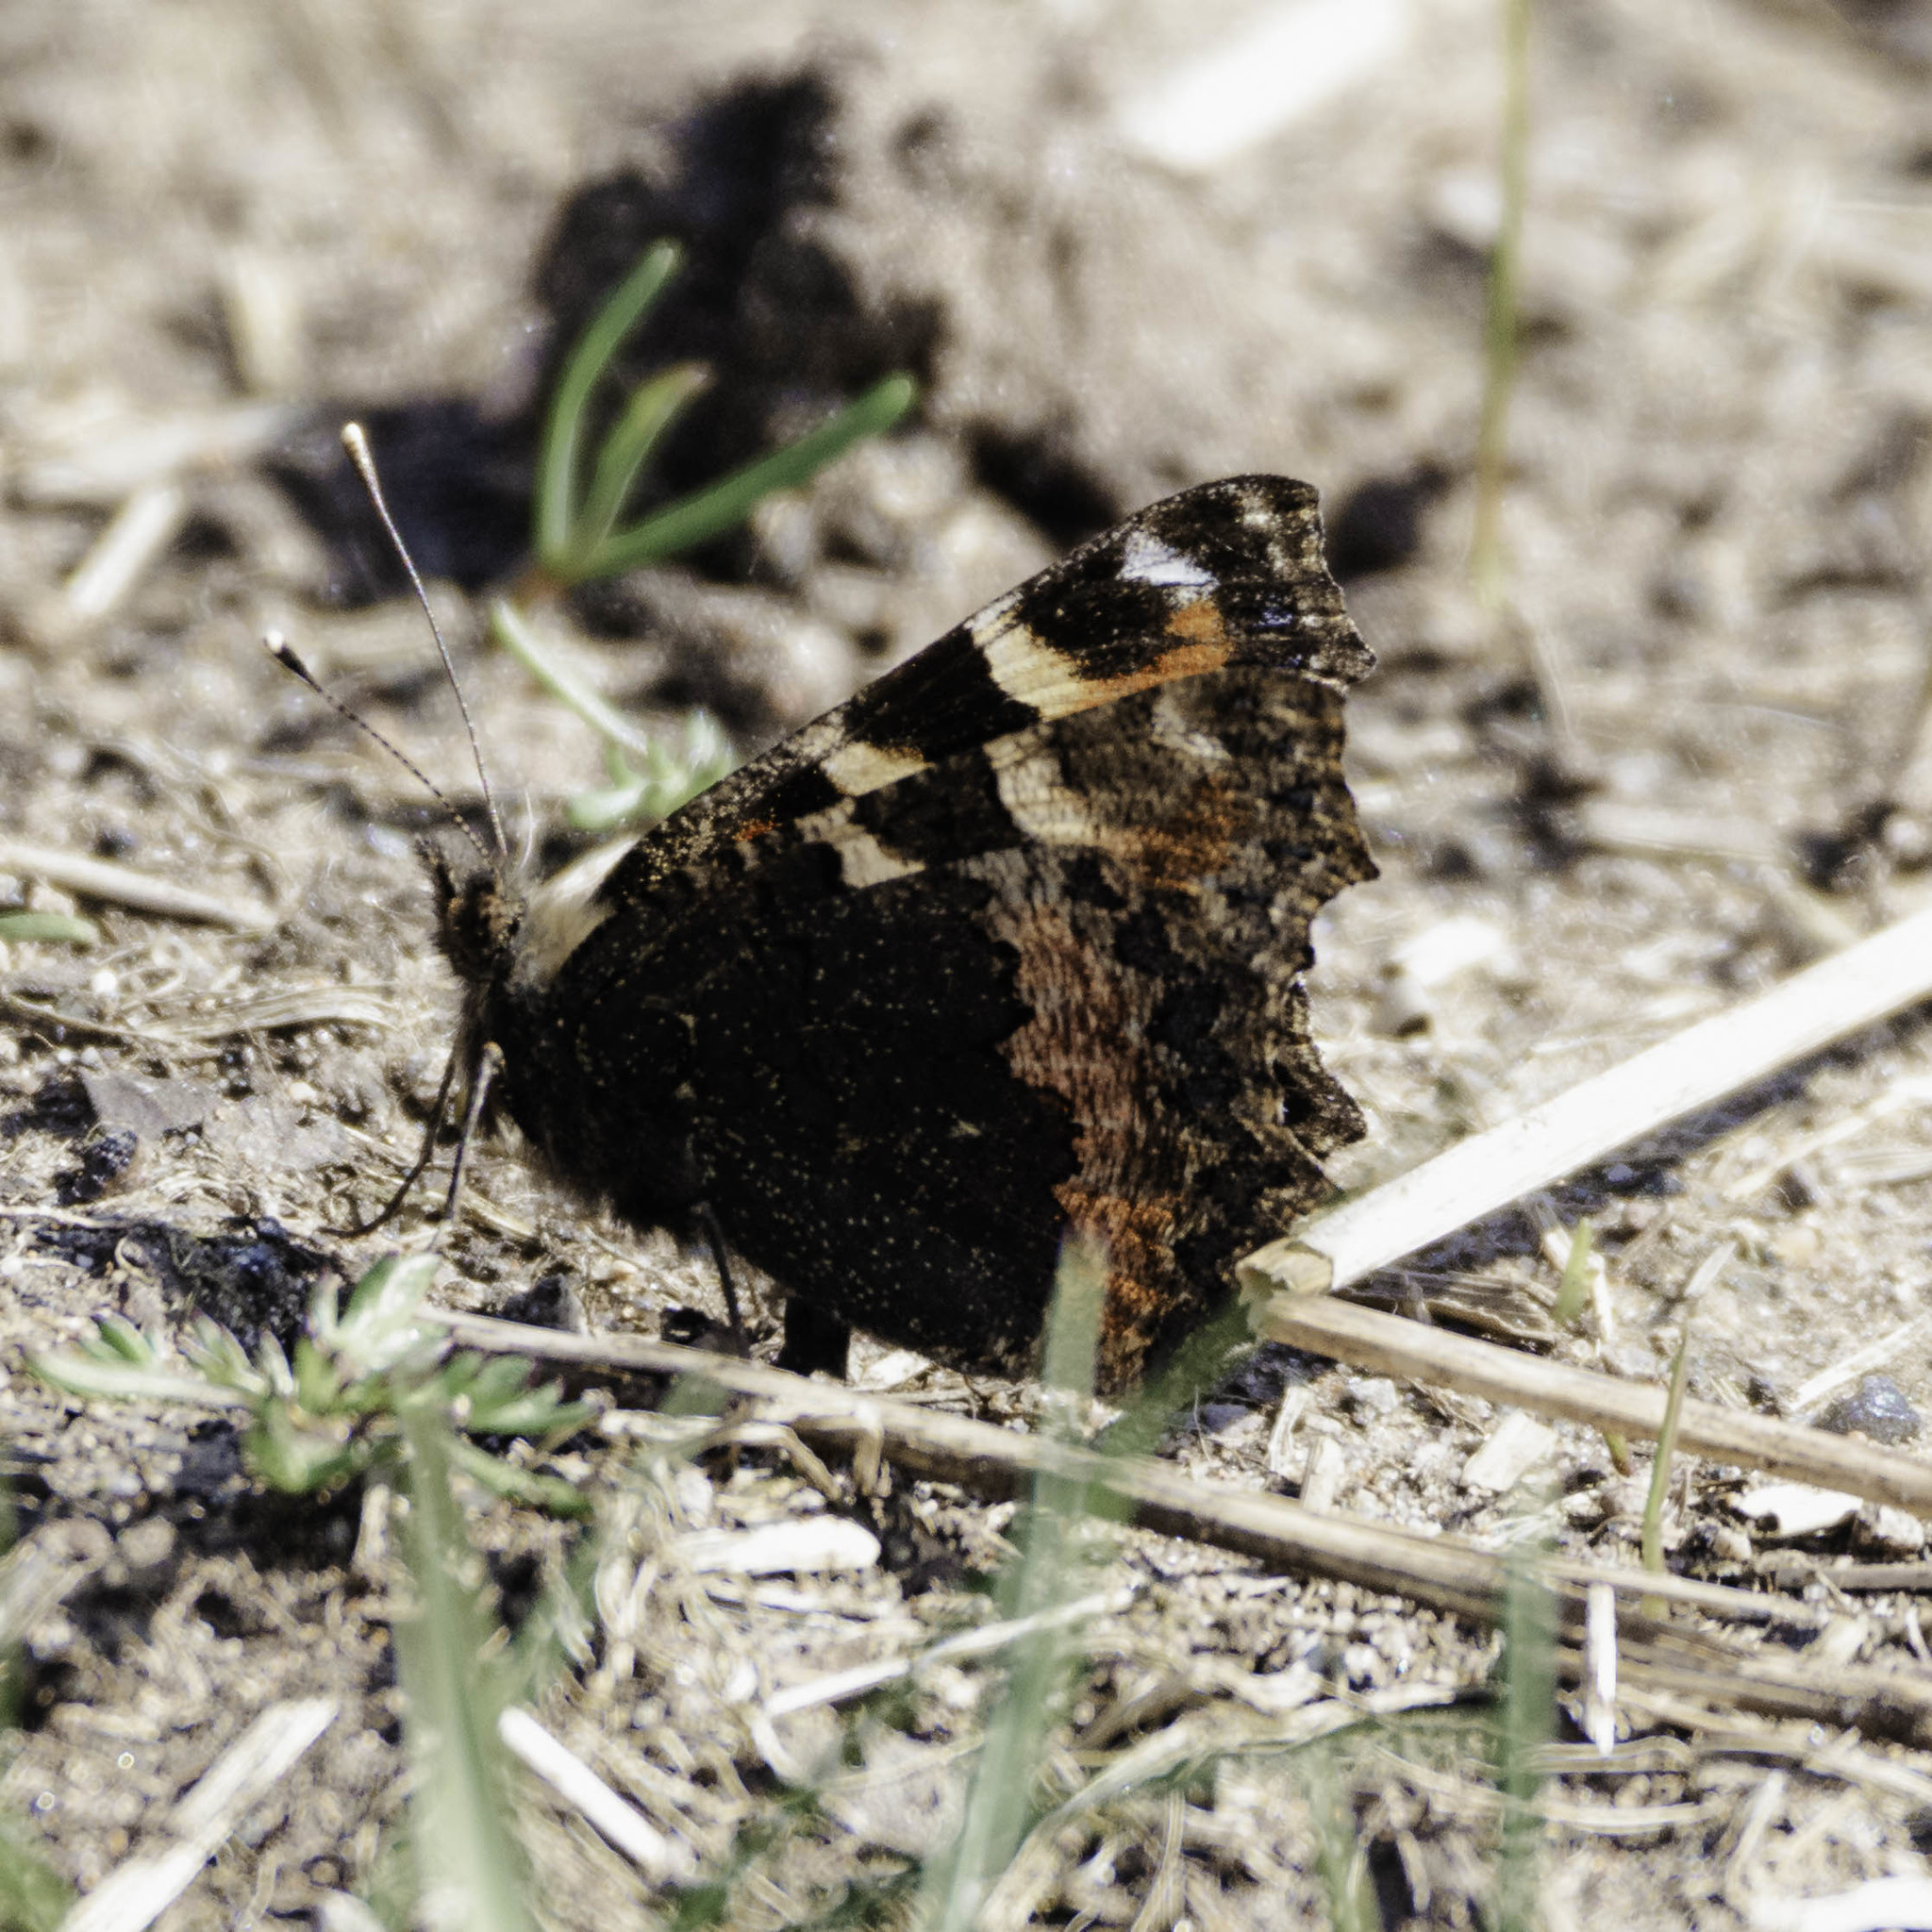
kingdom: Animalia
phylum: Arthropoda
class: Insecta
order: Lepidoptera
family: Nymphalidae
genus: Aglais
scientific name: Aglais urticae
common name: Small tortoiseshell
